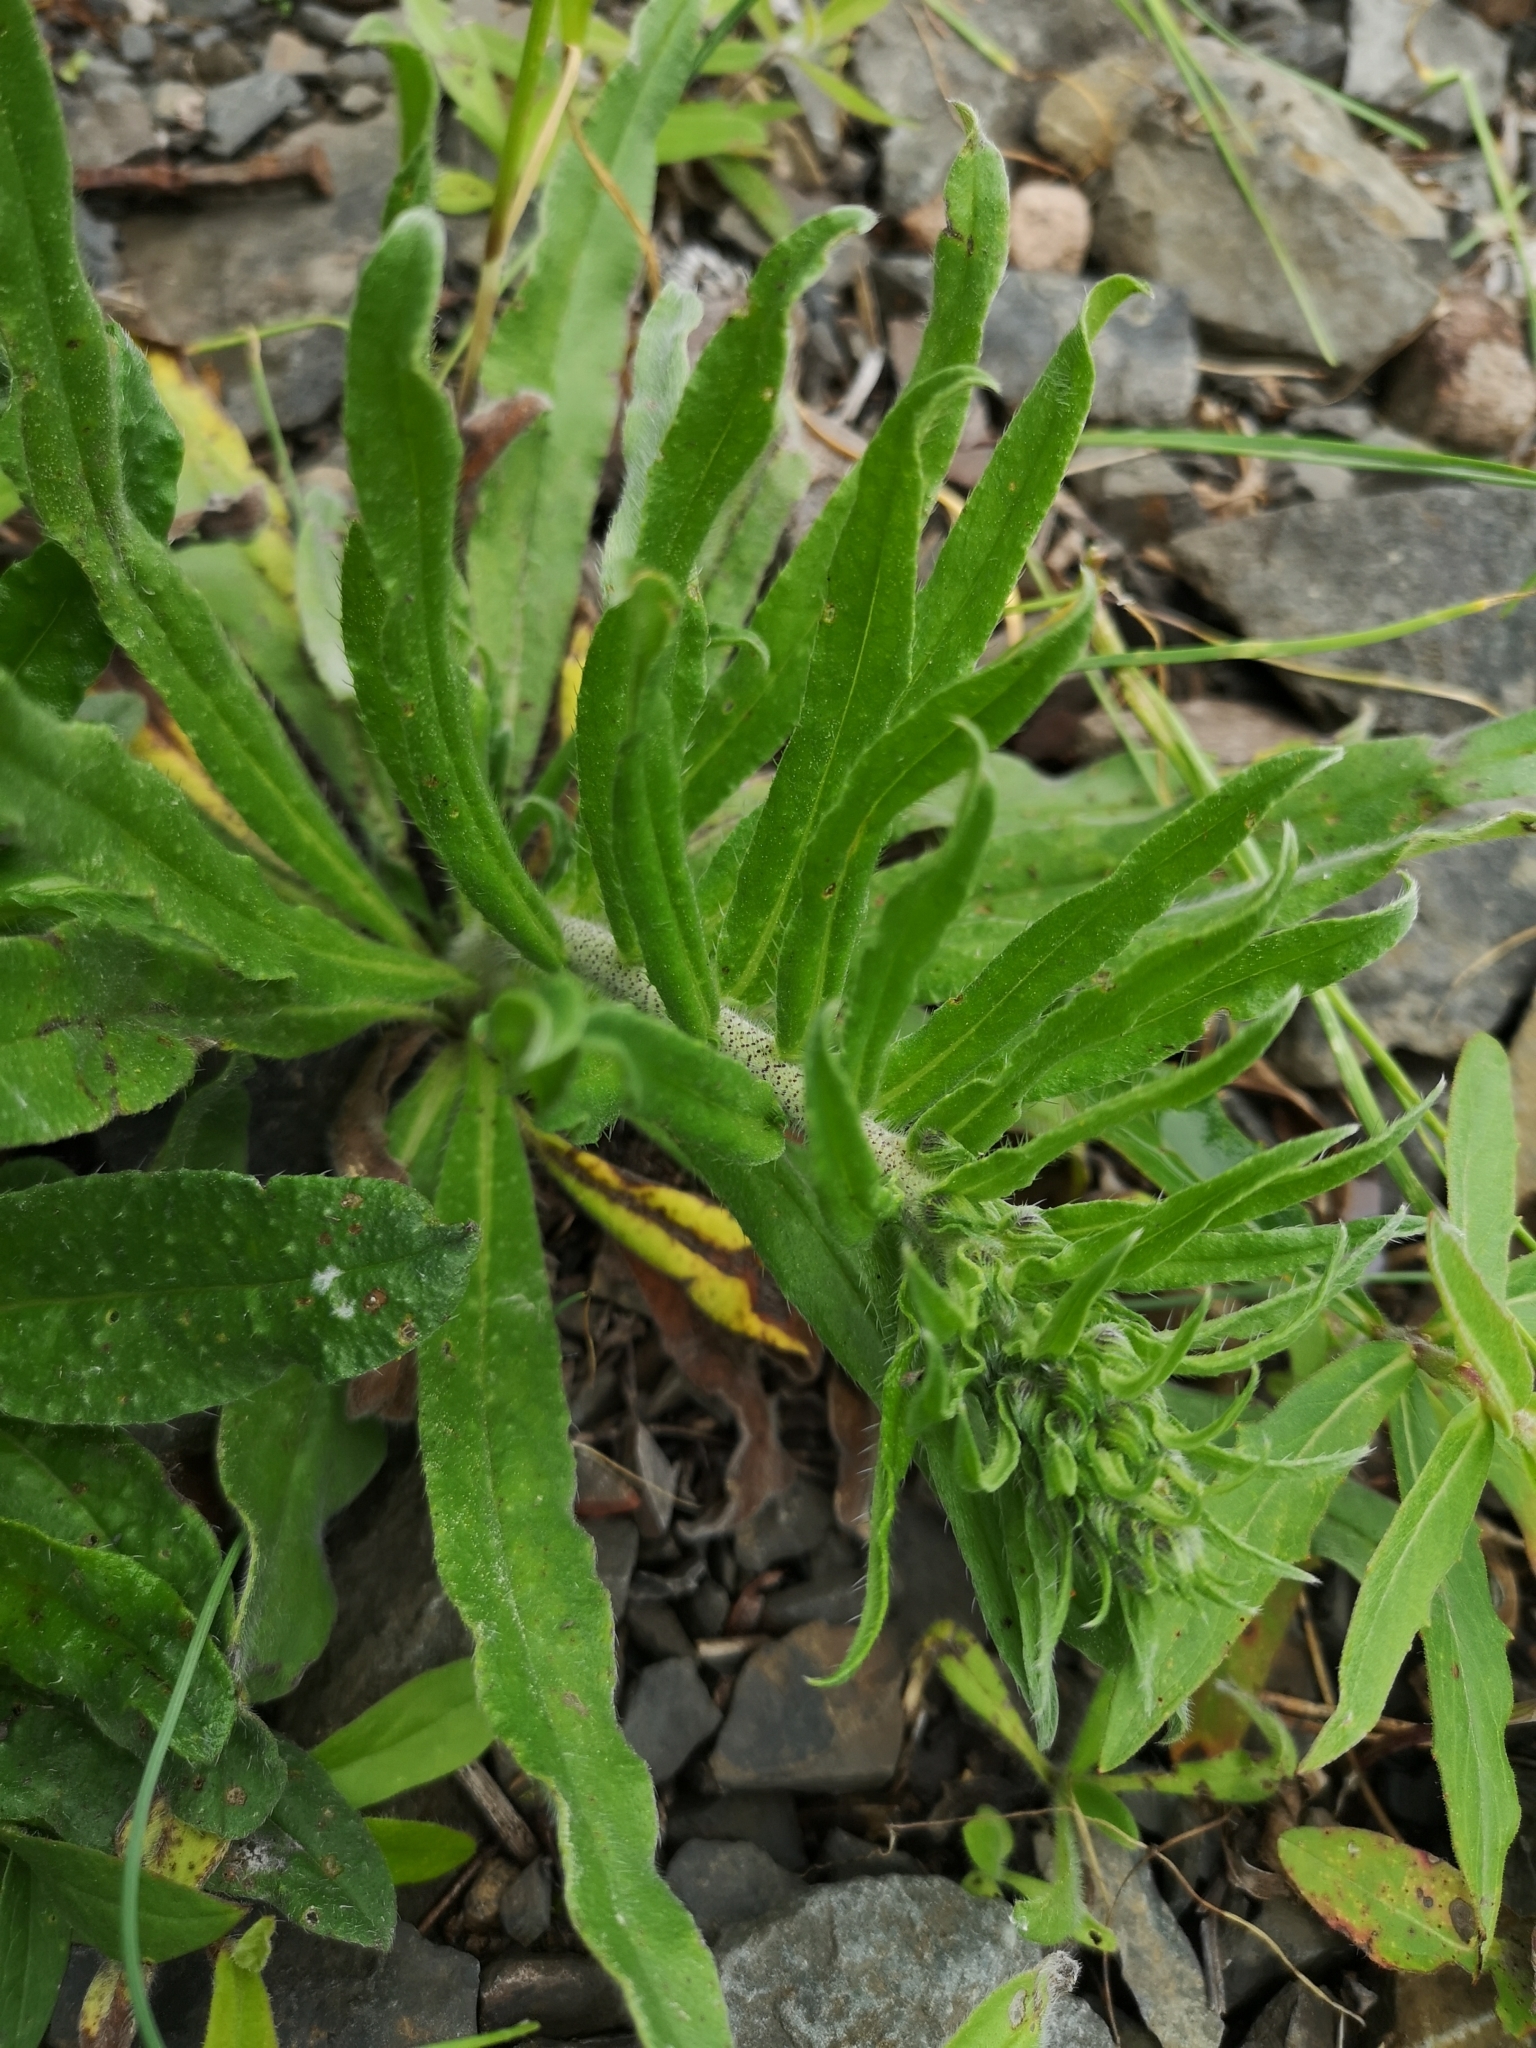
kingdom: Plantae
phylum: Tracheophyta
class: Magnoliopsida
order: Boraginales
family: Boraginaceae
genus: Echium
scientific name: Echium vulgare
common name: Common viper's bugloss
